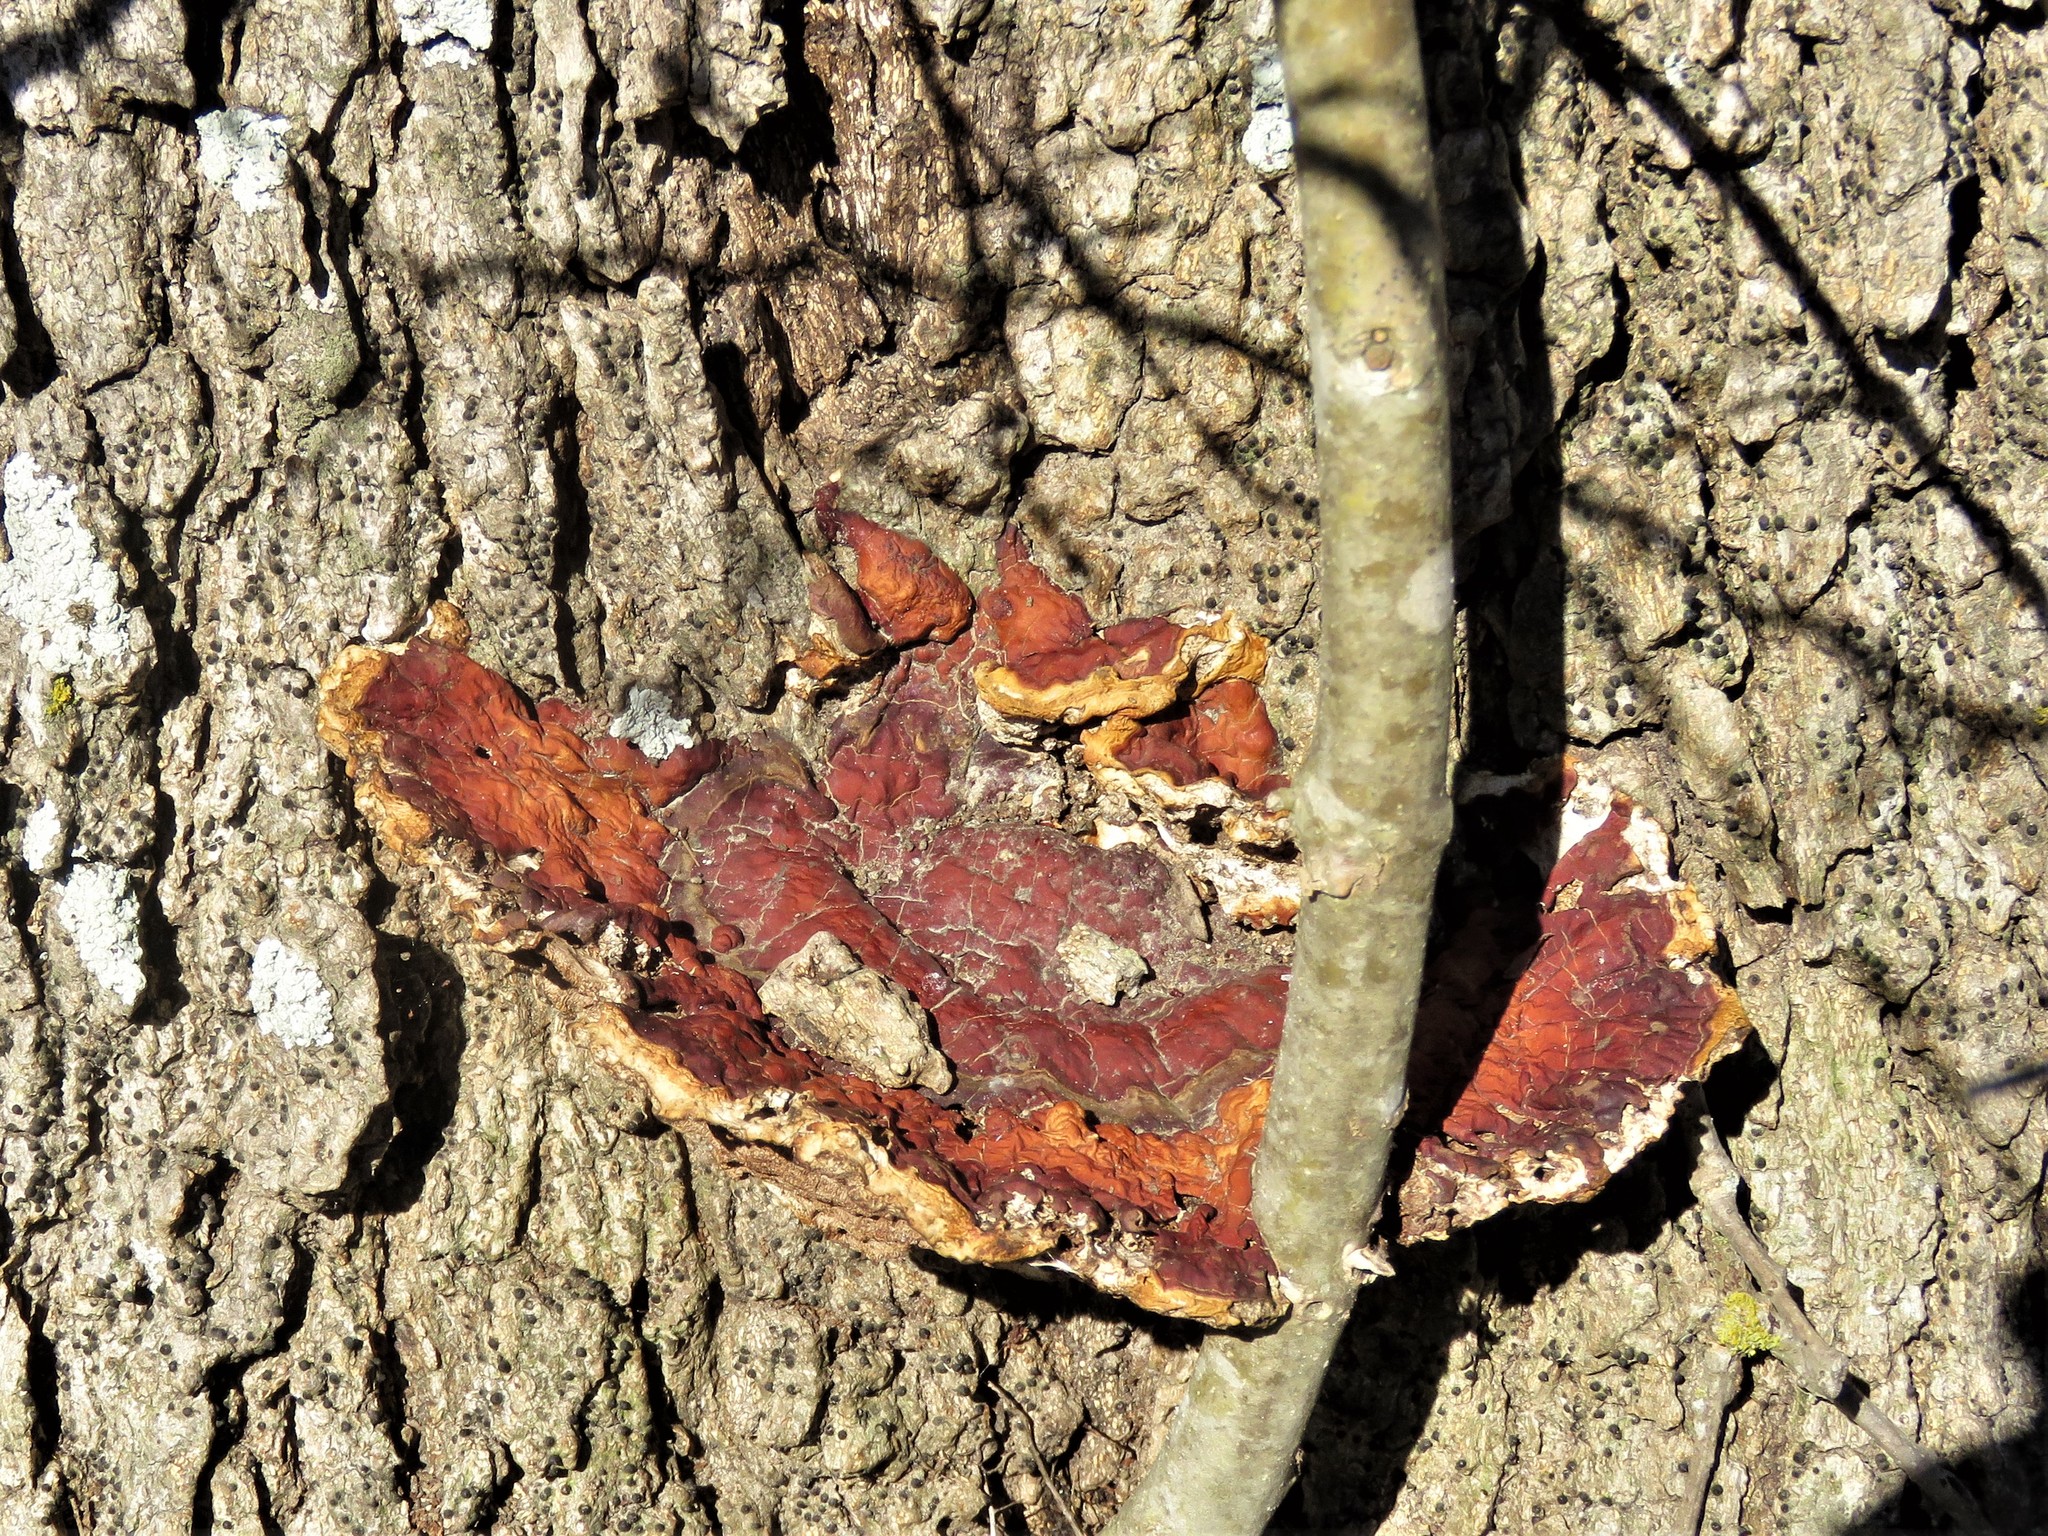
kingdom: Fungi
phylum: Basidiomycota
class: Agaricomycetes
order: Polyporales
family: Polyporaceae
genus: Ganoderma
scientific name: Ganoderma resinaceum
